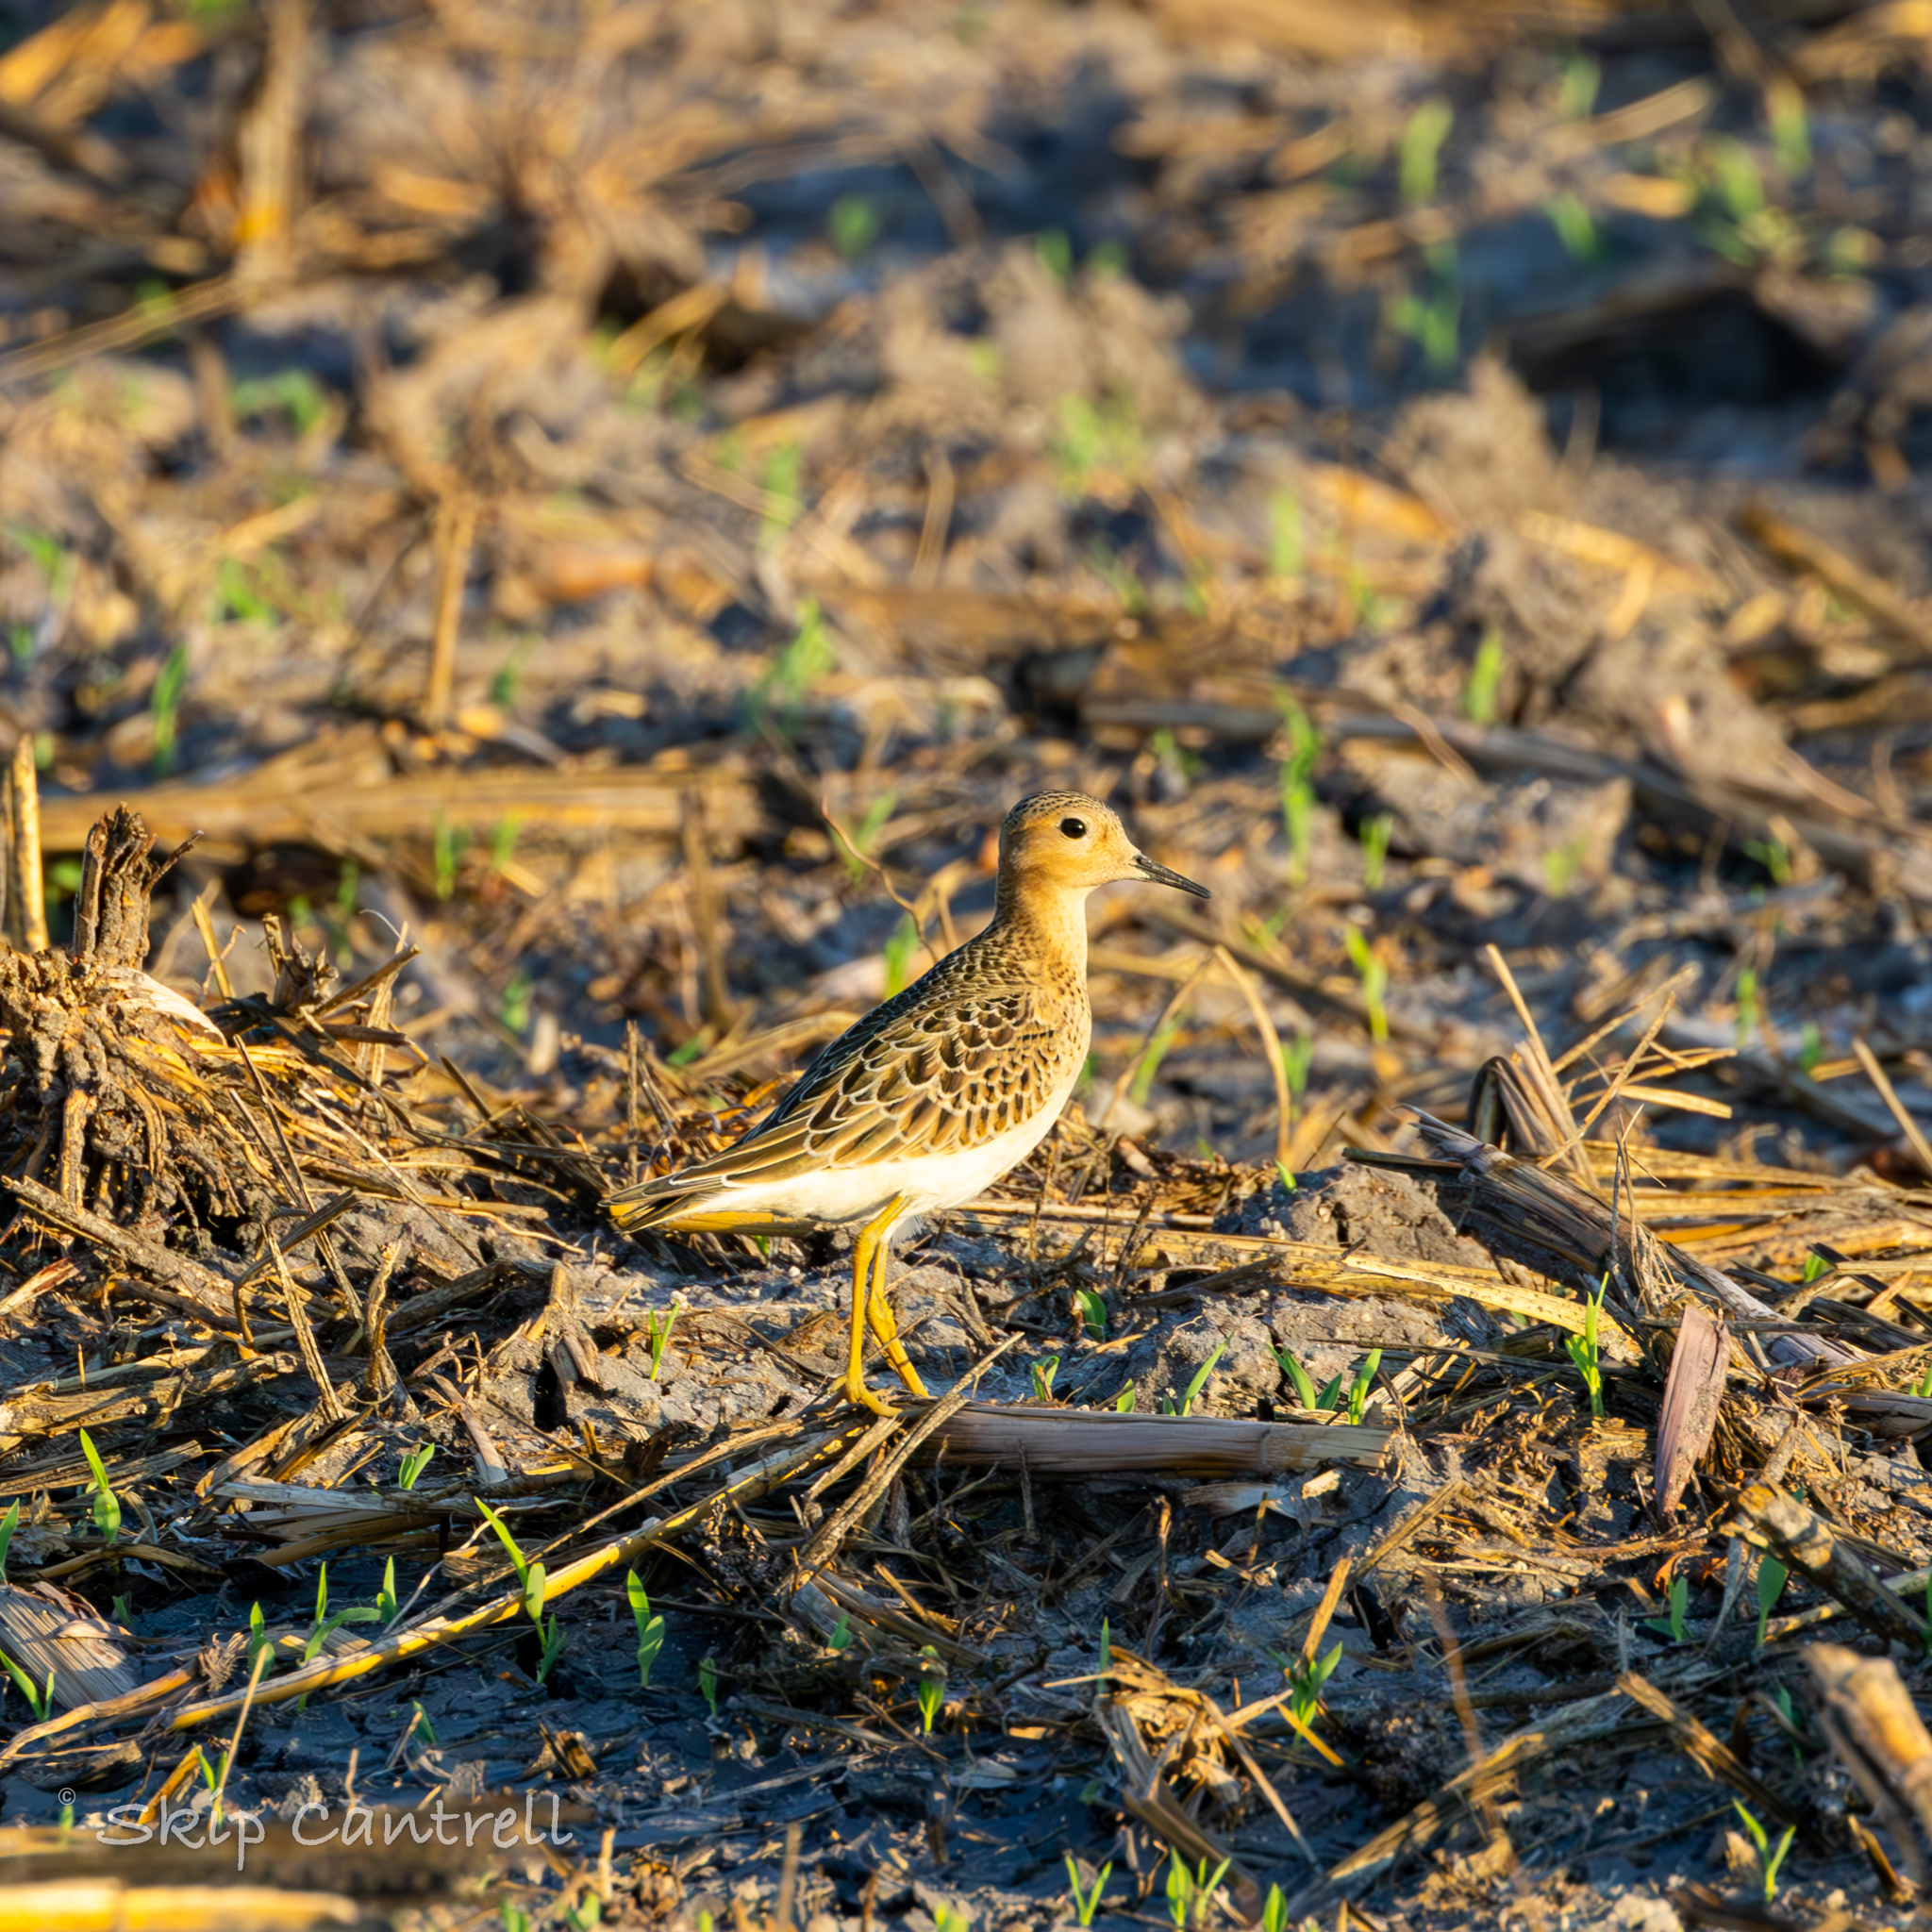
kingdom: Animalia
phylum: Chordata
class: Aves
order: Charadriiformes
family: Scolopacidae
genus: Calidris
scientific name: Calidris subruficollis
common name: Buff-breasted sandpiper
